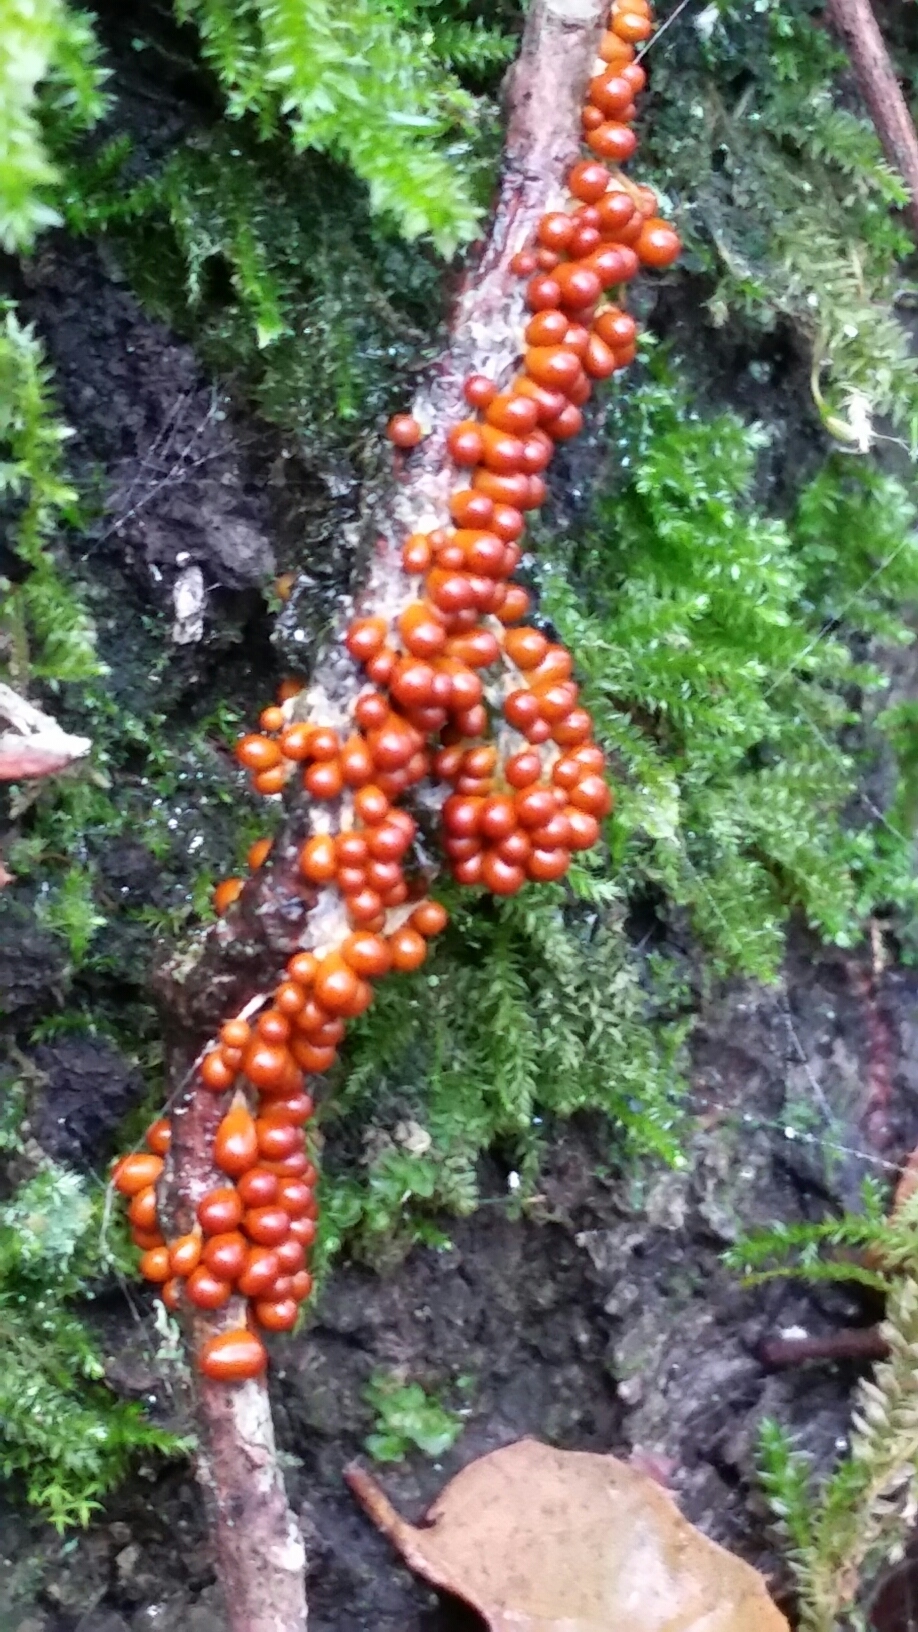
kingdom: Protozoa
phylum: Mycetozoa
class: Myxomycetes
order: Physarales
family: Physaraceae
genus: Leocarpus
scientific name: Leocarpus fragilis
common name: Insect-egg slime
